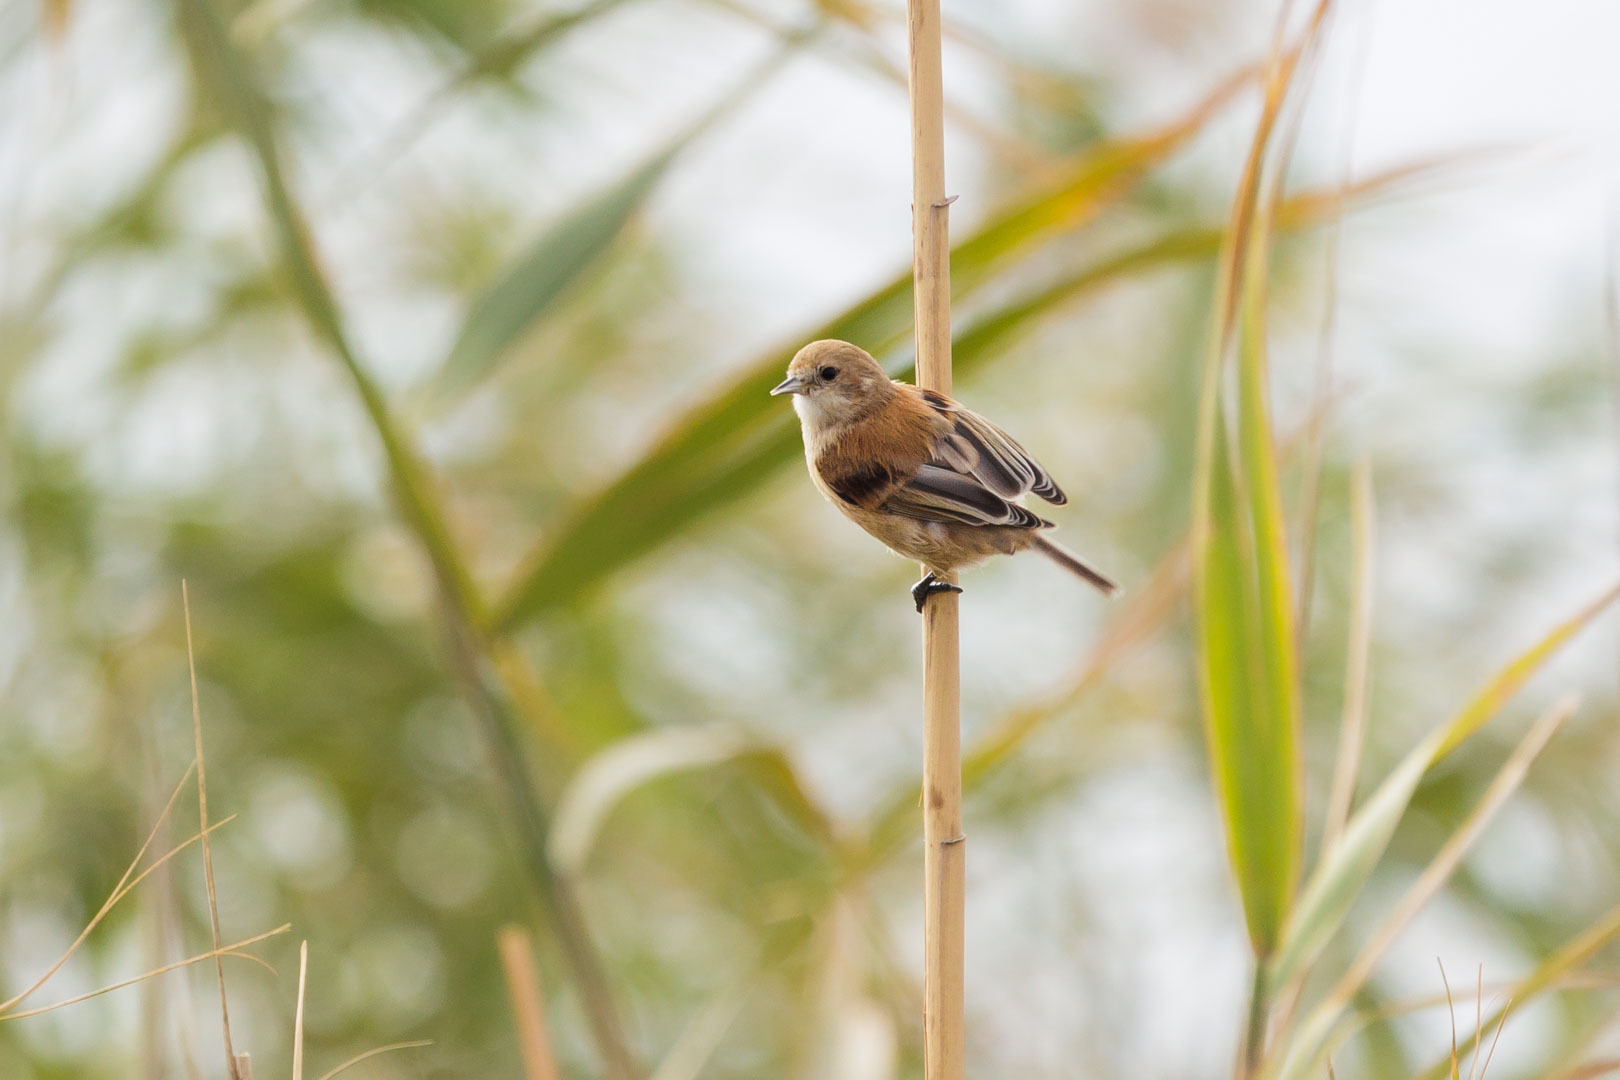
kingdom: Animalia
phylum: Chordata
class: Aves
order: Passeriformes
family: Remizidae
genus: Remiz
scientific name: Remiz pendulinus
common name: Eurasian penduline tit
